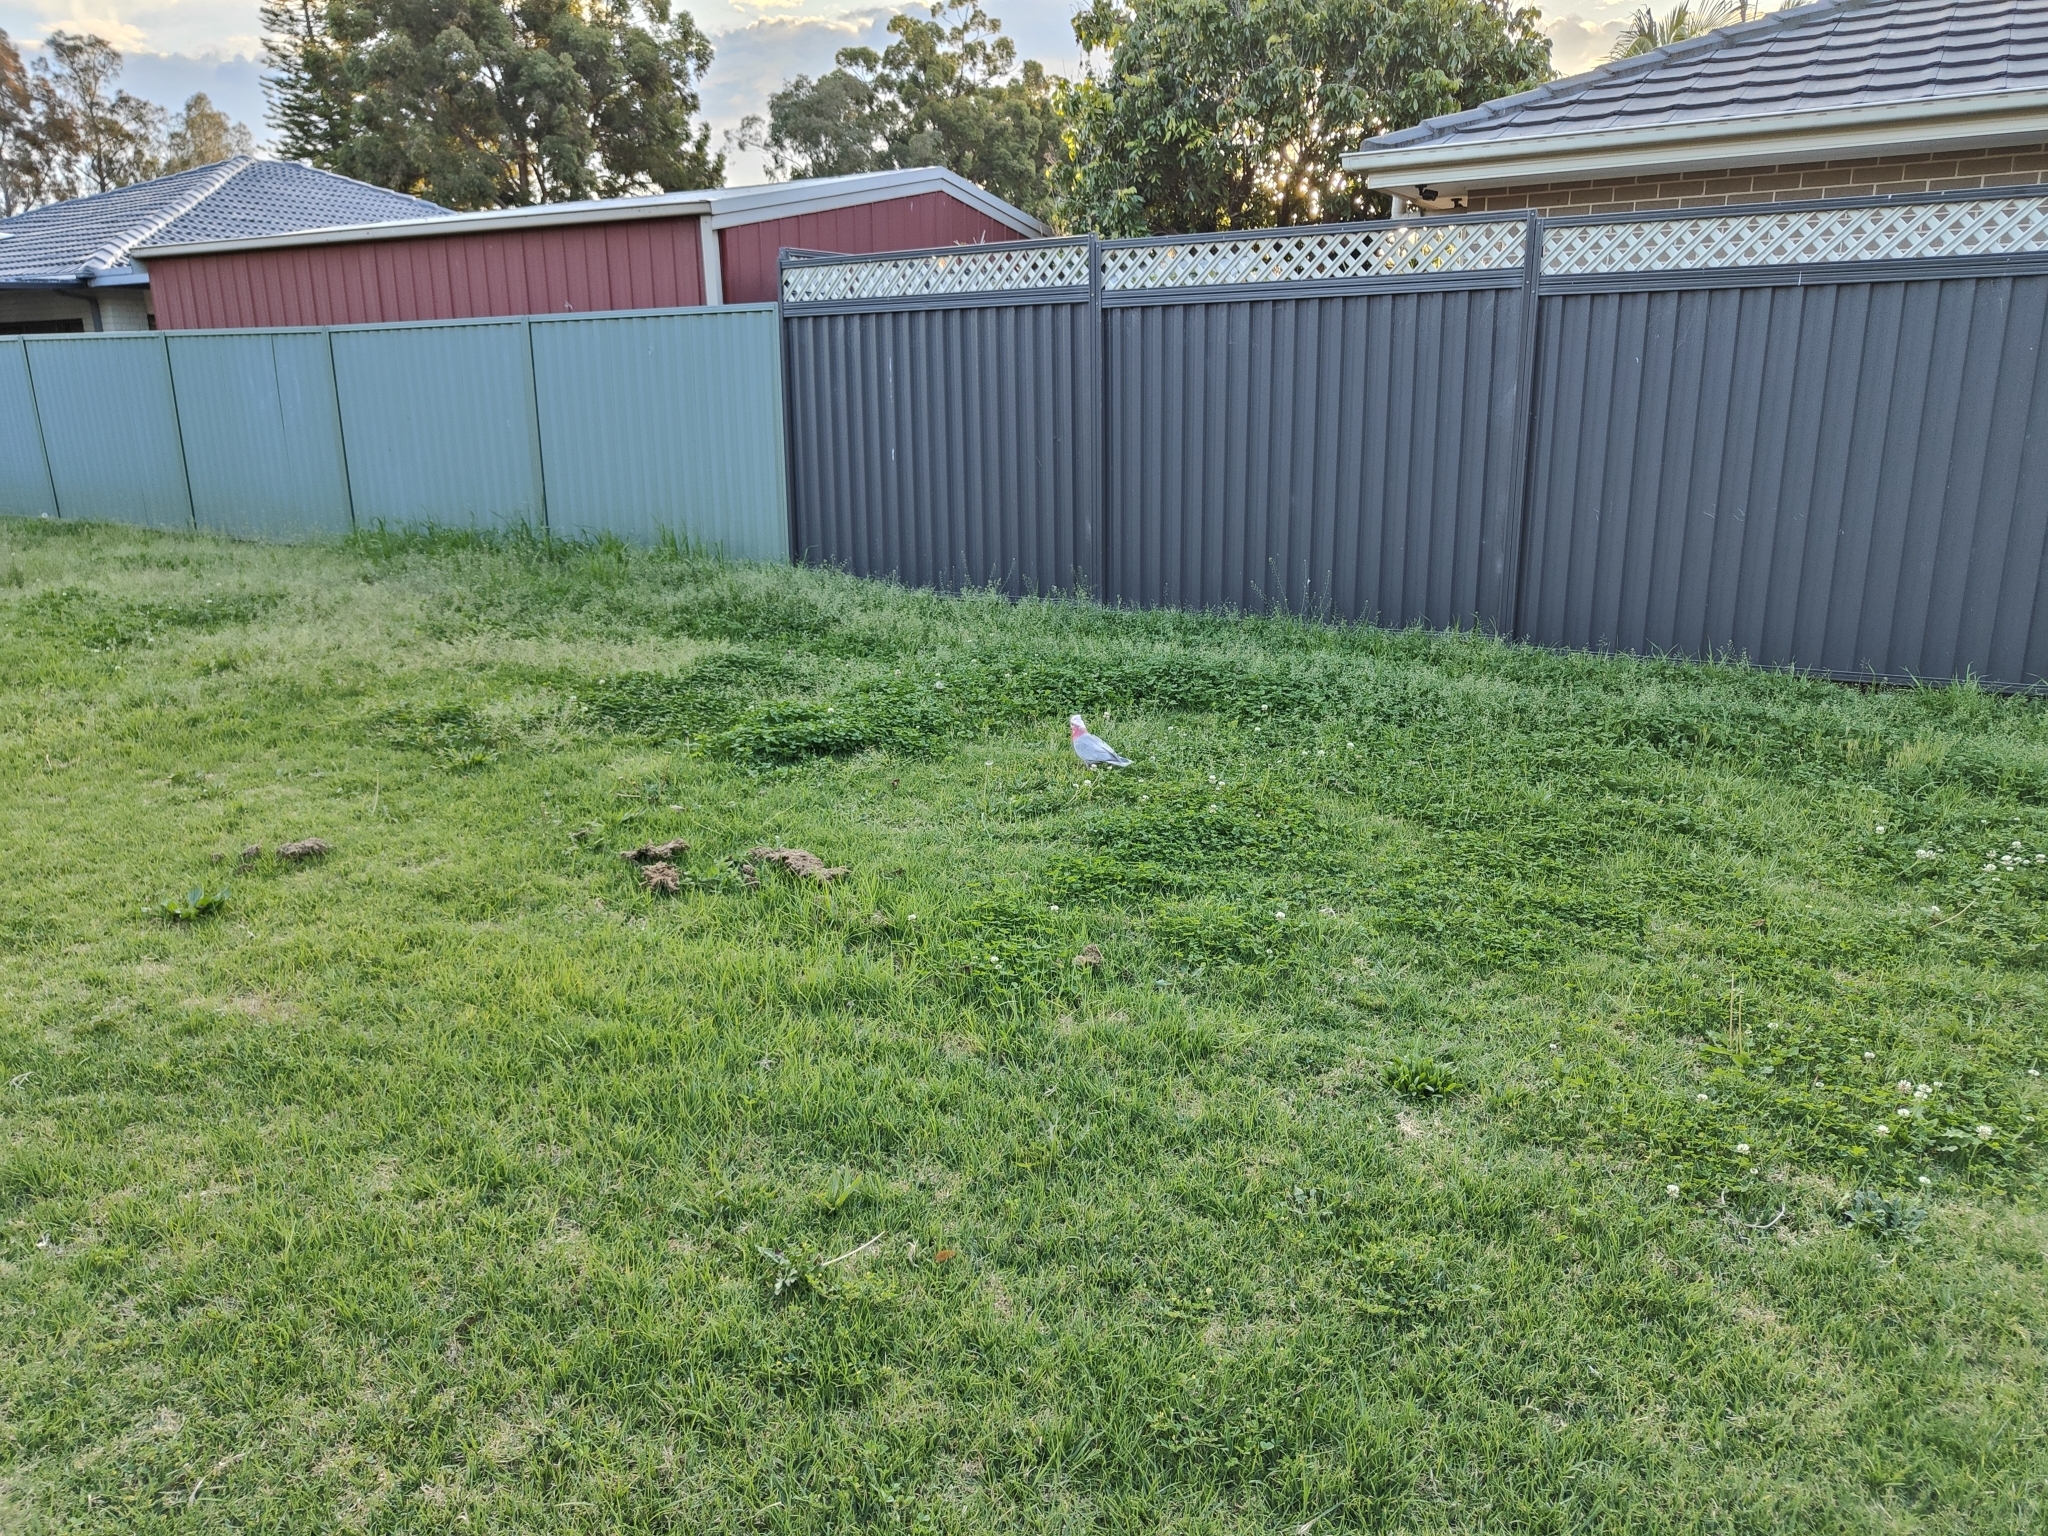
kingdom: Animalia
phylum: Chordata
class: Aves
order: Psittaciformes
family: Psittacidae
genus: Eolophus
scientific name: Eolophus roseicapilla
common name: Galah
